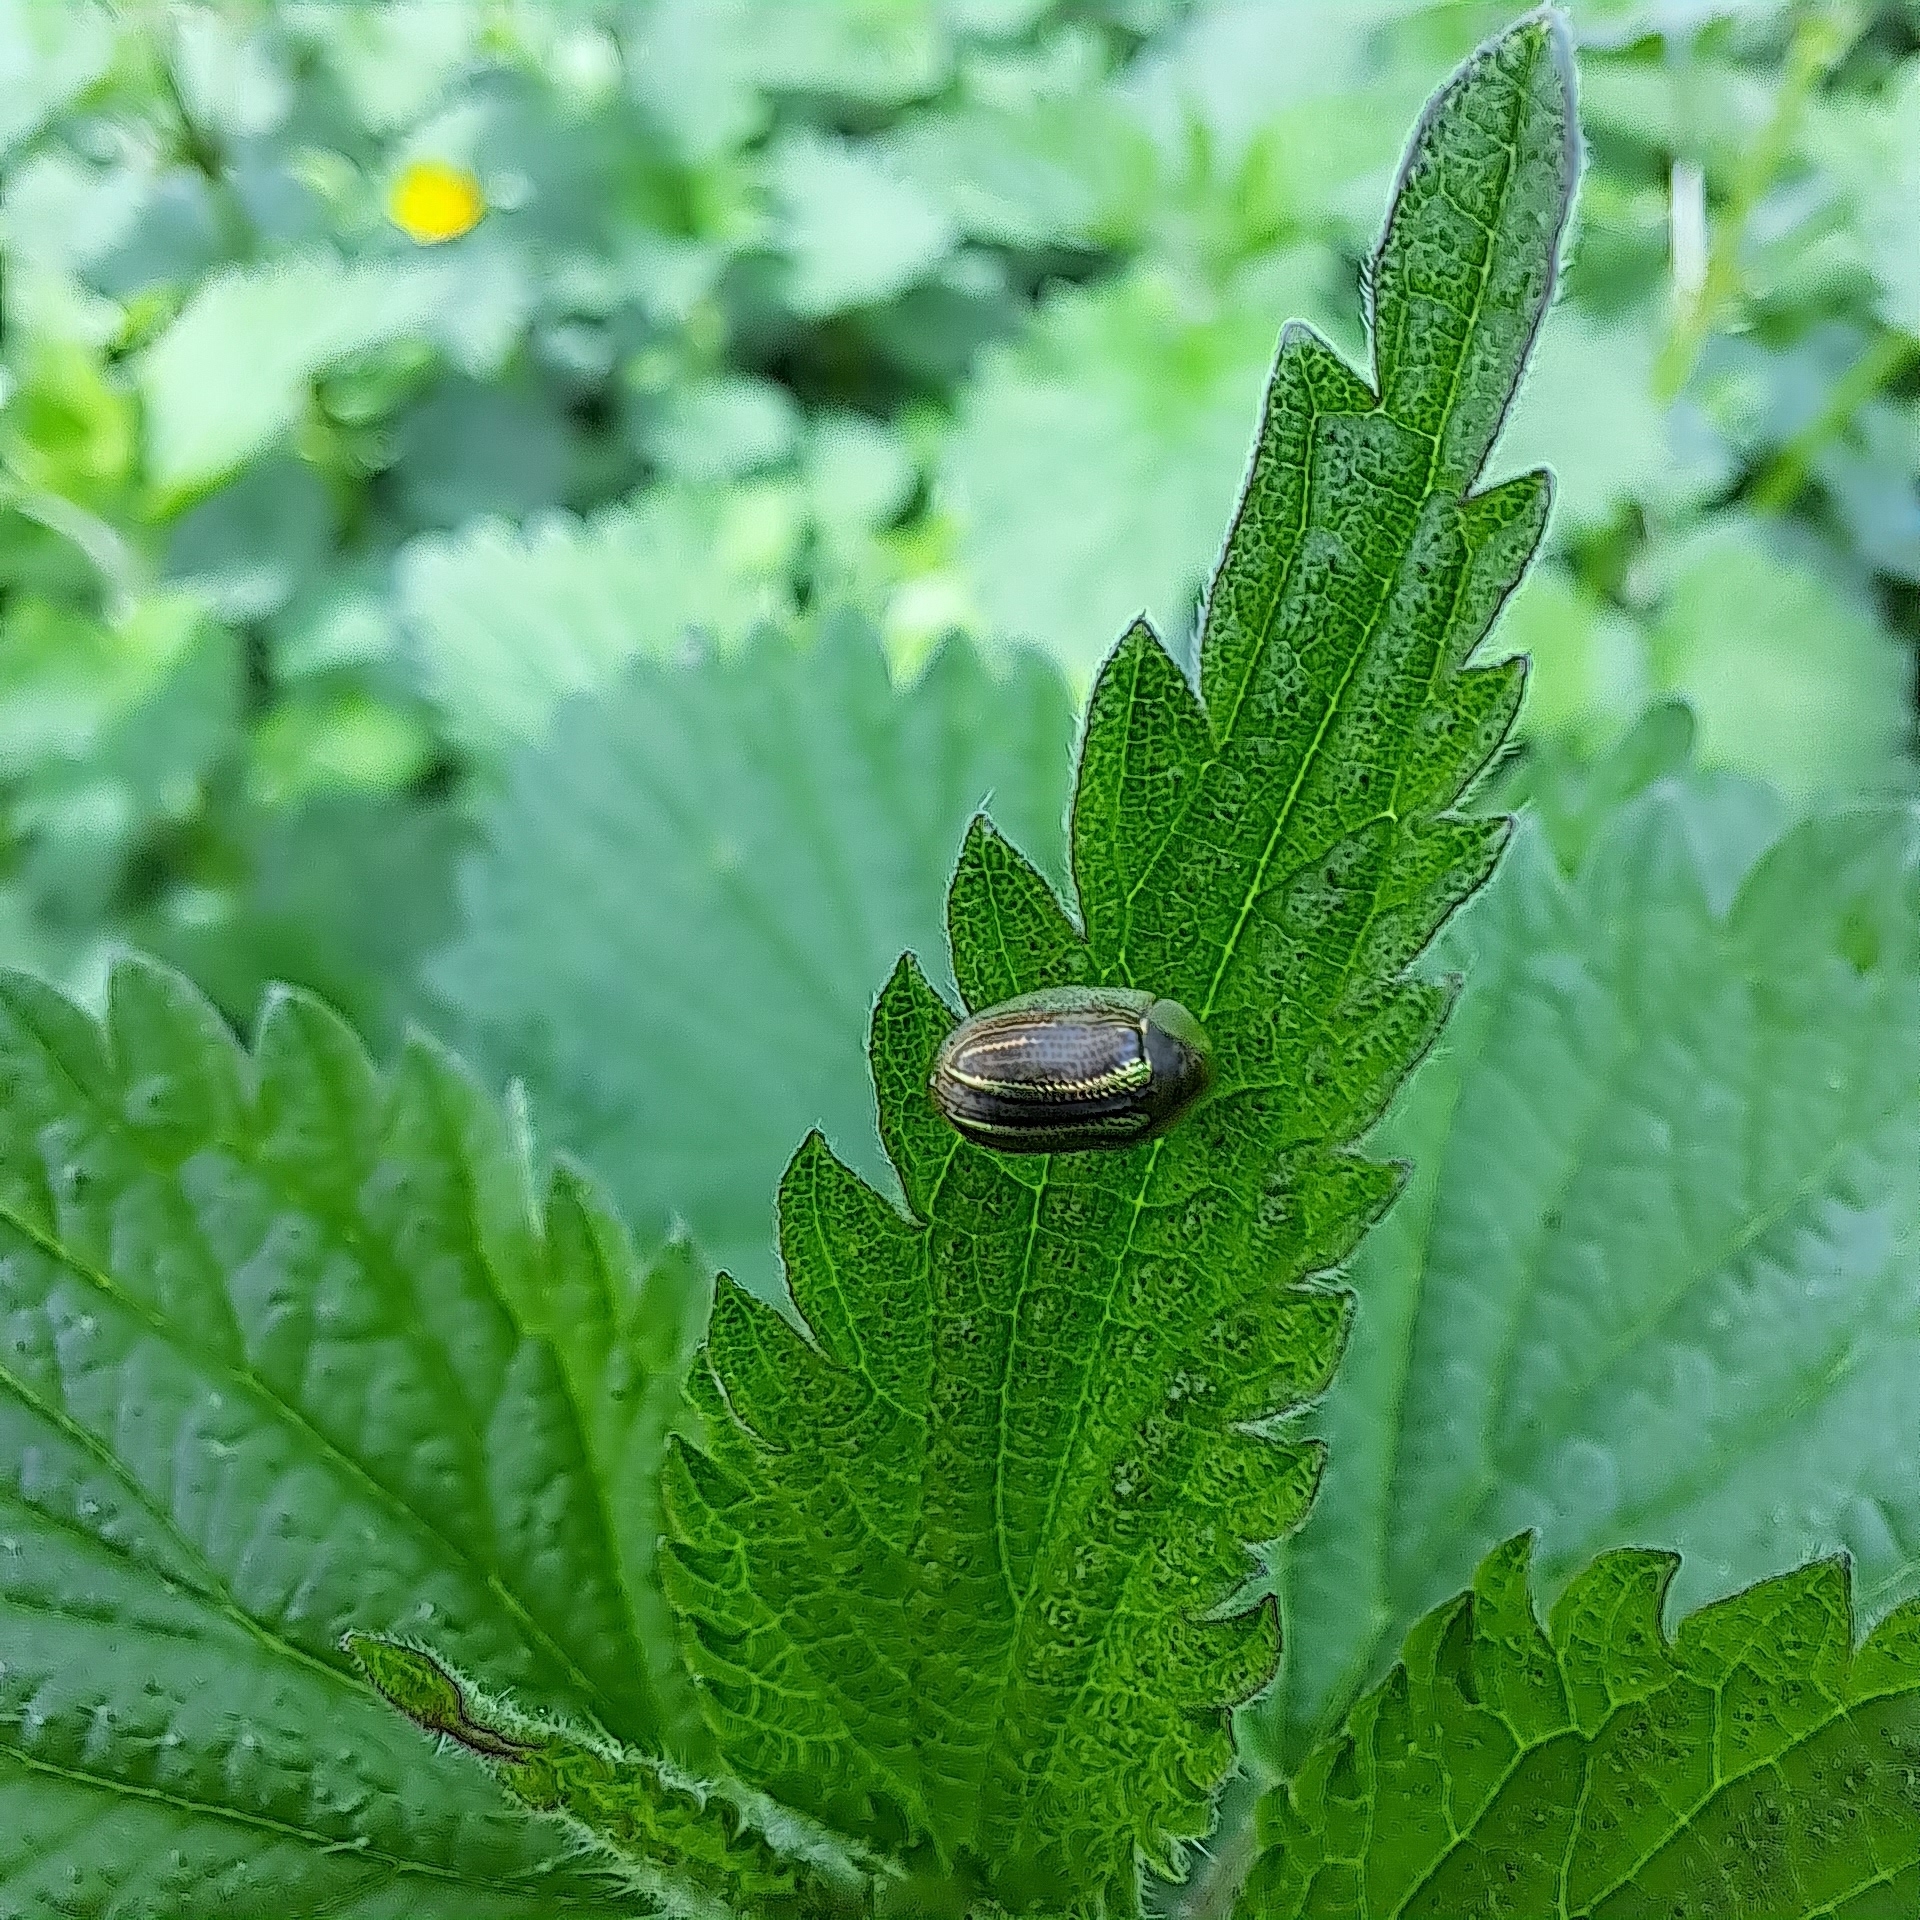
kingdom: Animalia
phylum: Arthropoda
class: Insecta
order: Coleoptera
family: Chrysomelidae
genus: Cassida
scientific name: Cassida nobilis
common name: Leaf beetle
